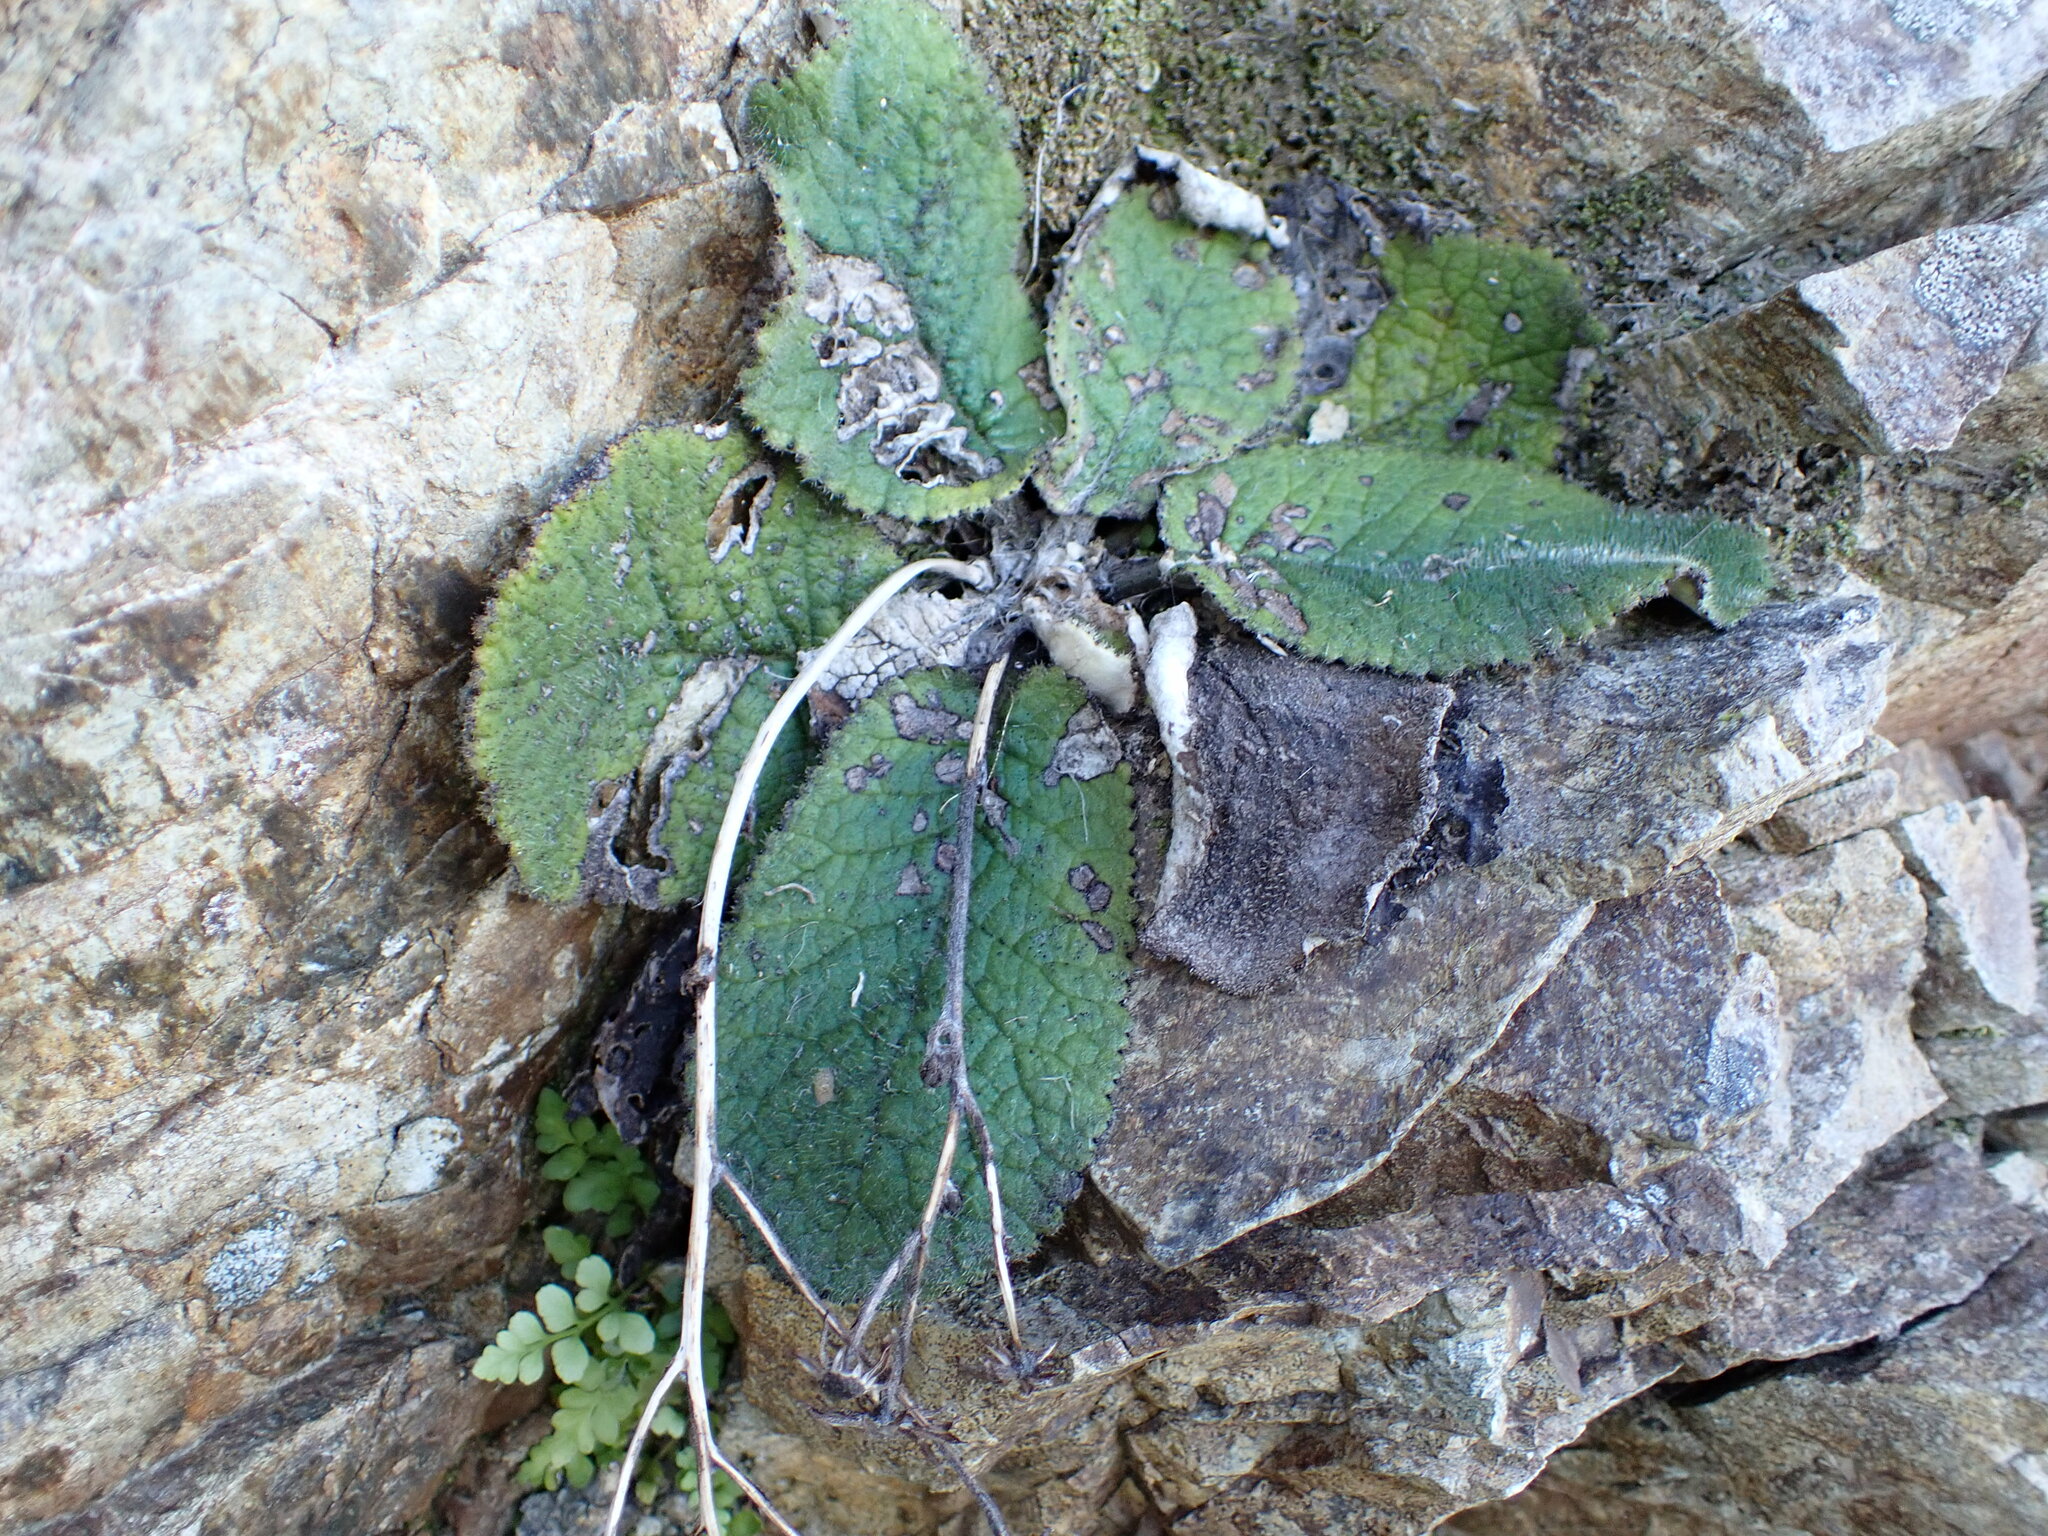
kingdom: Plantae
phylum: Tracheophyta
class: Magnoliopsida
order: Asterales
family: Asteraceae
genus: Brachyglottis
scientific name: Brachyglottis lagopus
